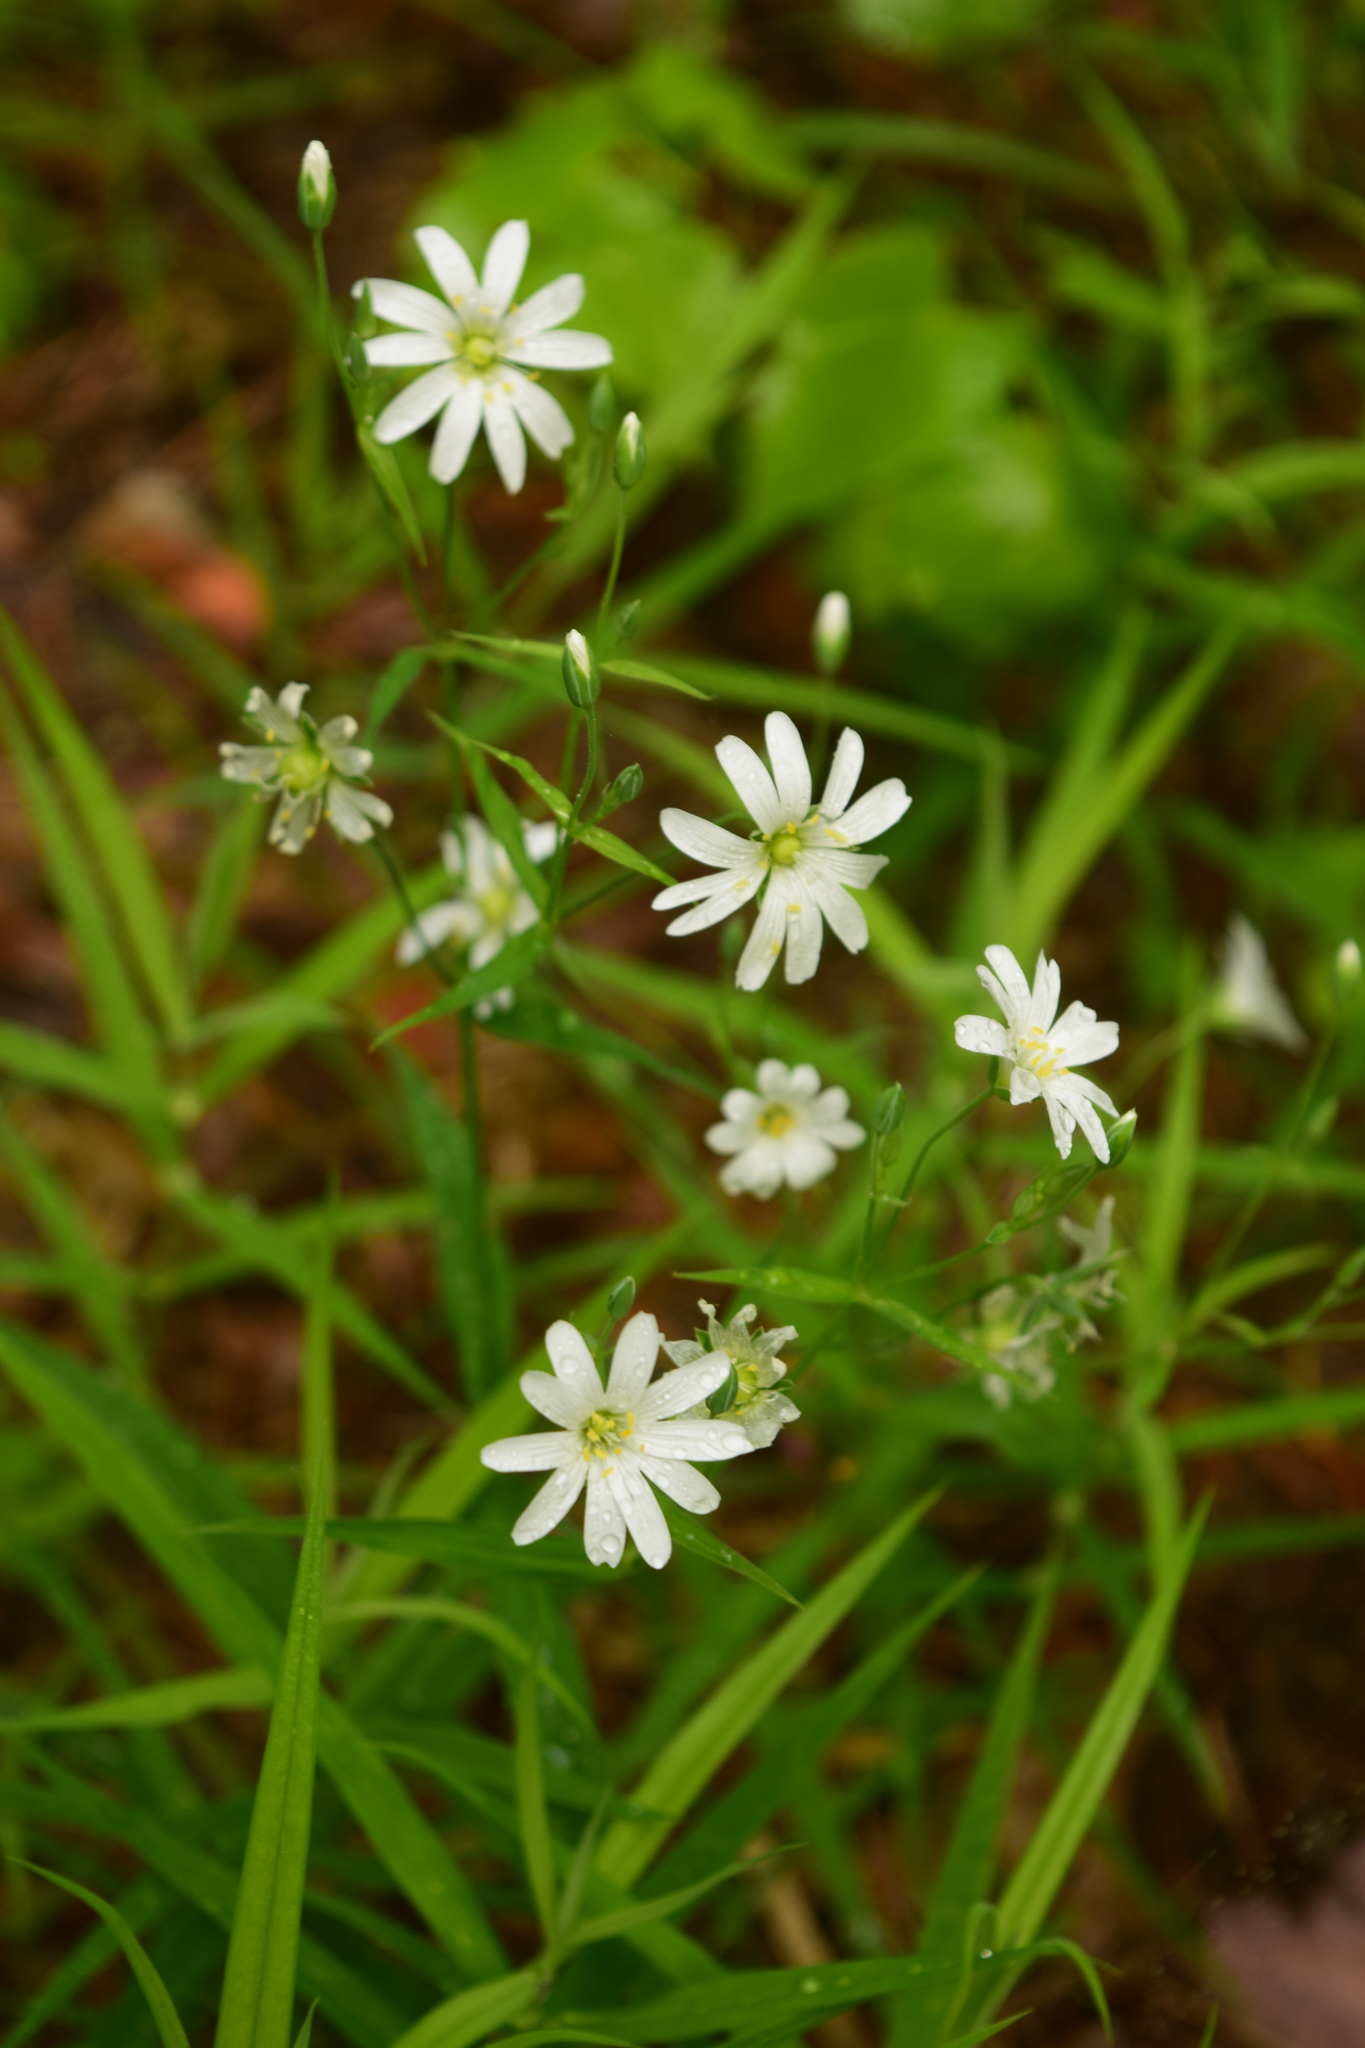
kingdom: Plantae
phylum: Tracheophyta
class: Magnoliopsida
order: Caryophyllales
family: Caryophyllaceae
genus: Rabelera
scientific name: Rabelera holostea
